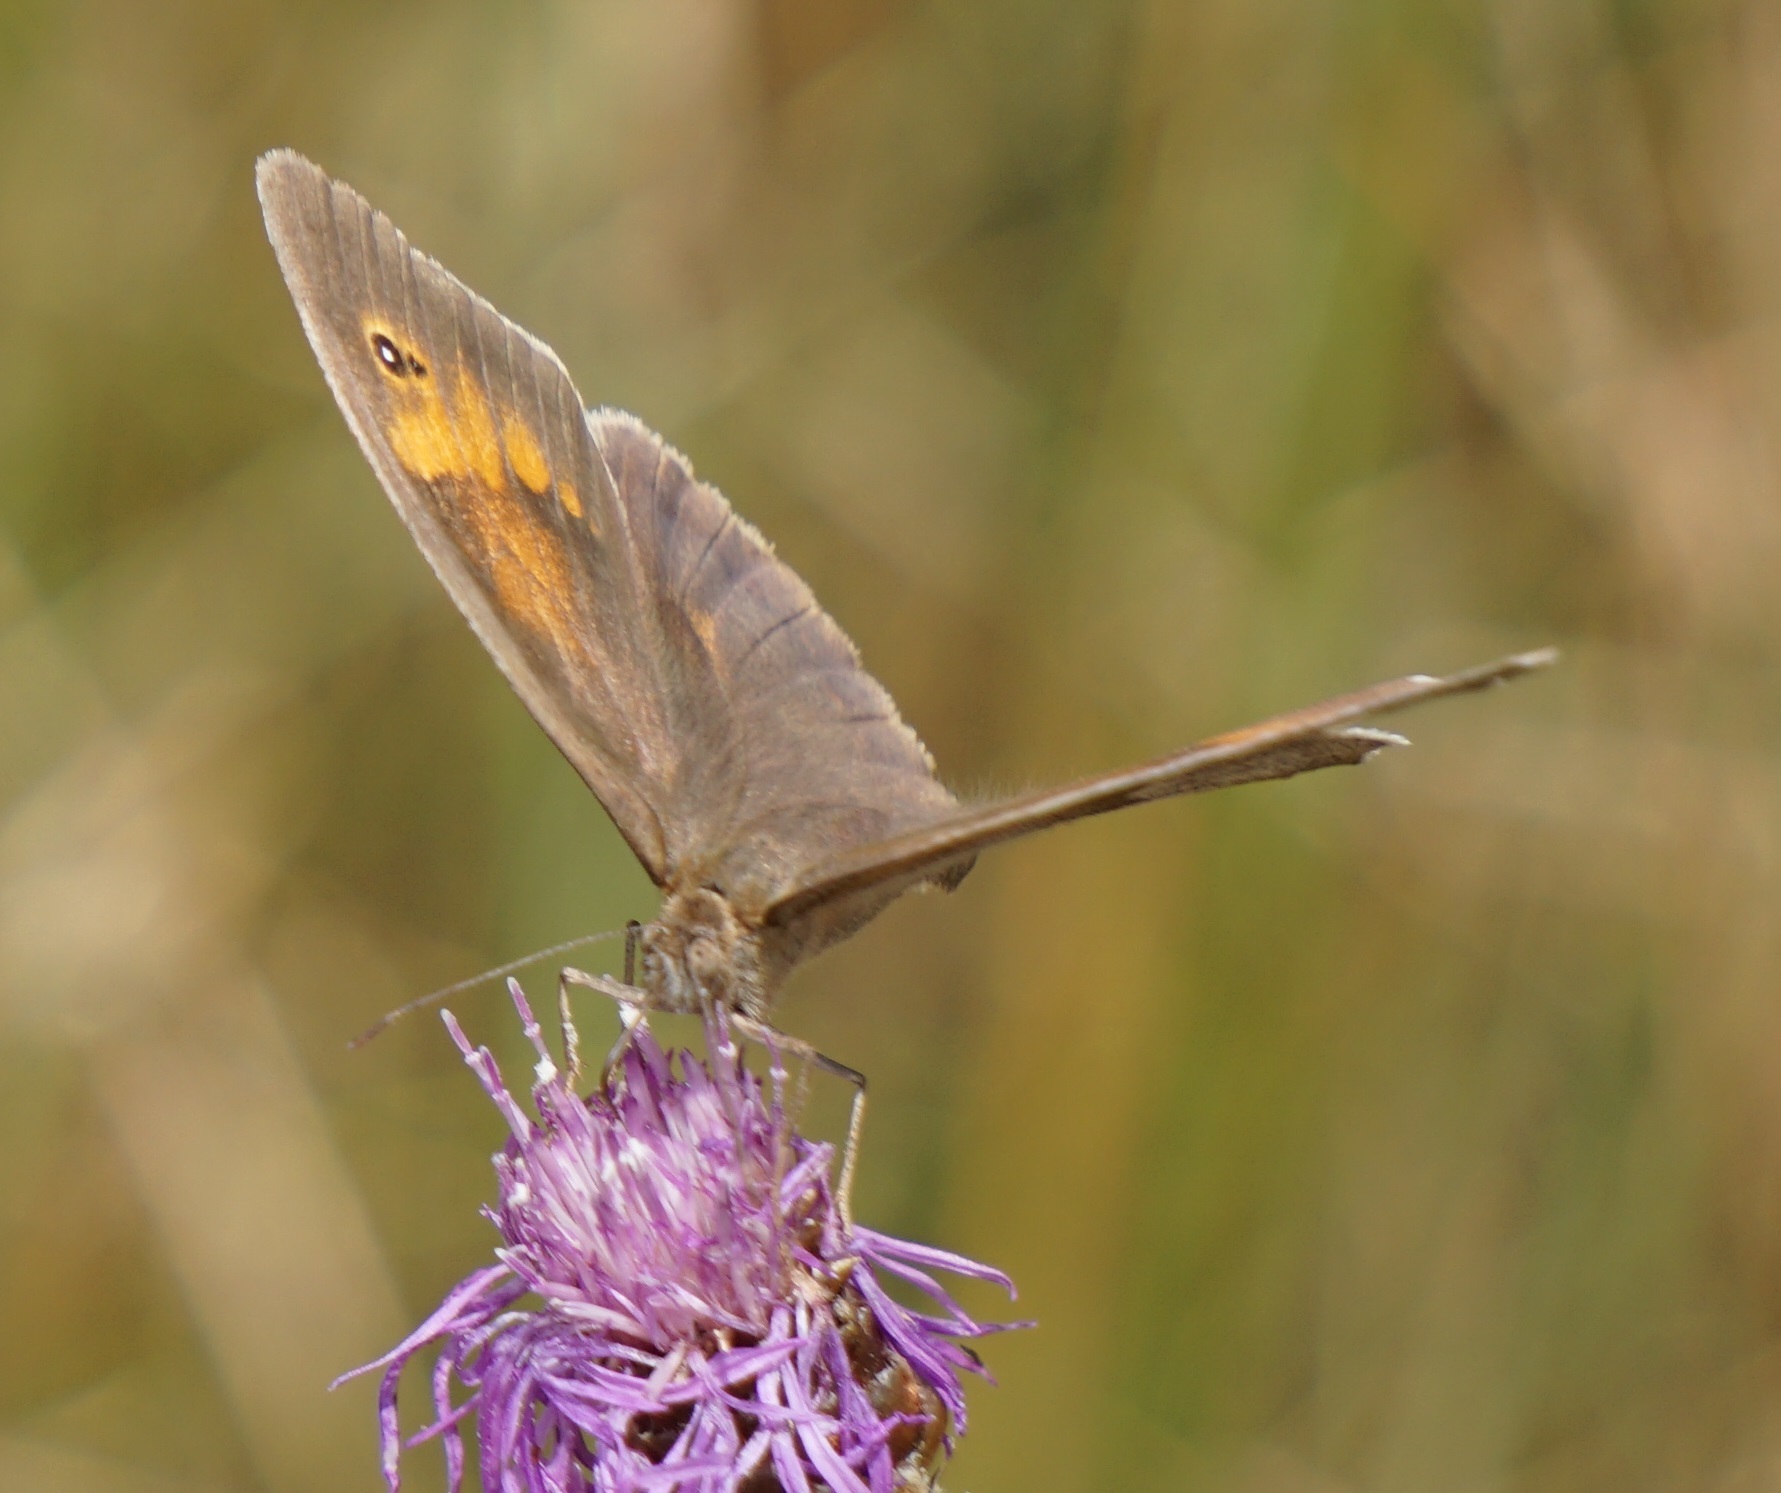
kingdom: Animalia
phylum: Arthropoda
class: Insecta
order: Lepidoptera
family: Nymphalidae
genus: Maniola
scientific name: Maniola jurtina
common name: Meadow brown
